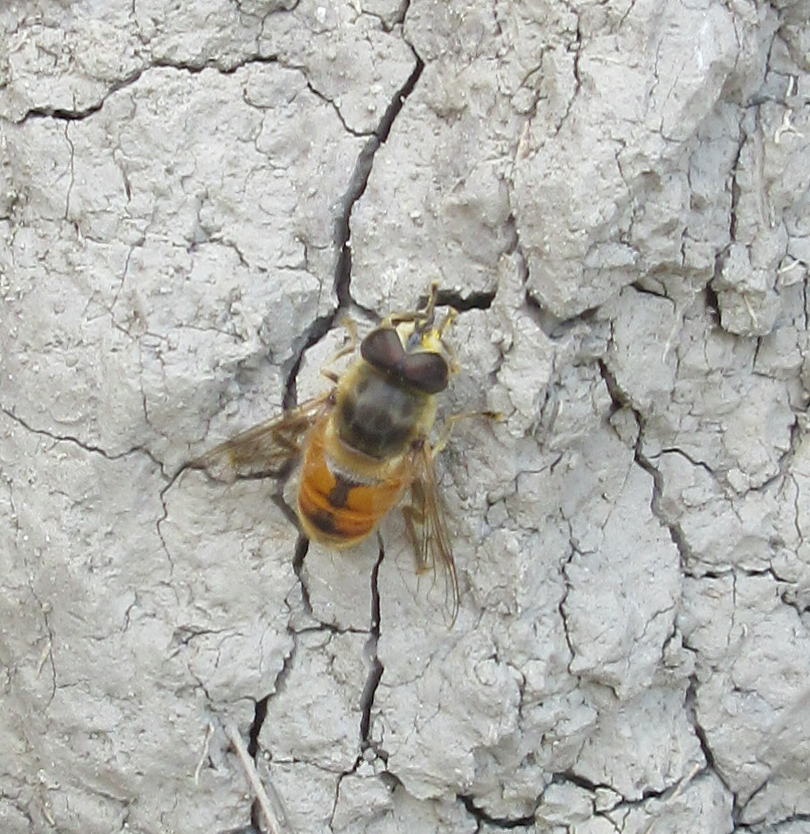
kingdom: Animalia
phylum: Arthropoda
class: Insecta
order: Diptera
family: Syrphidae
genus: Eristalis
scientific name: Eristalis tenax
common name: Drone fly
